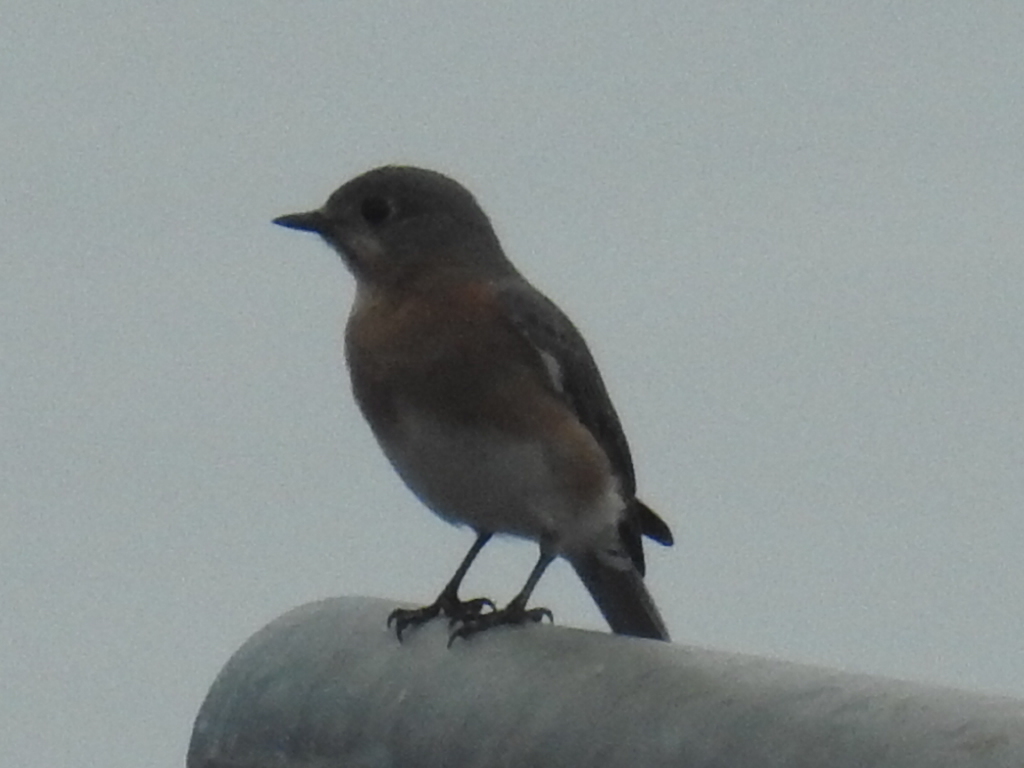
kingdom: Animalia
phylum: Chordata
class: Aves
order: Passeriformes
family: Turdidae
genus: Sialia
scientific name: Sialia sialis
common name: Eastern bluebird
